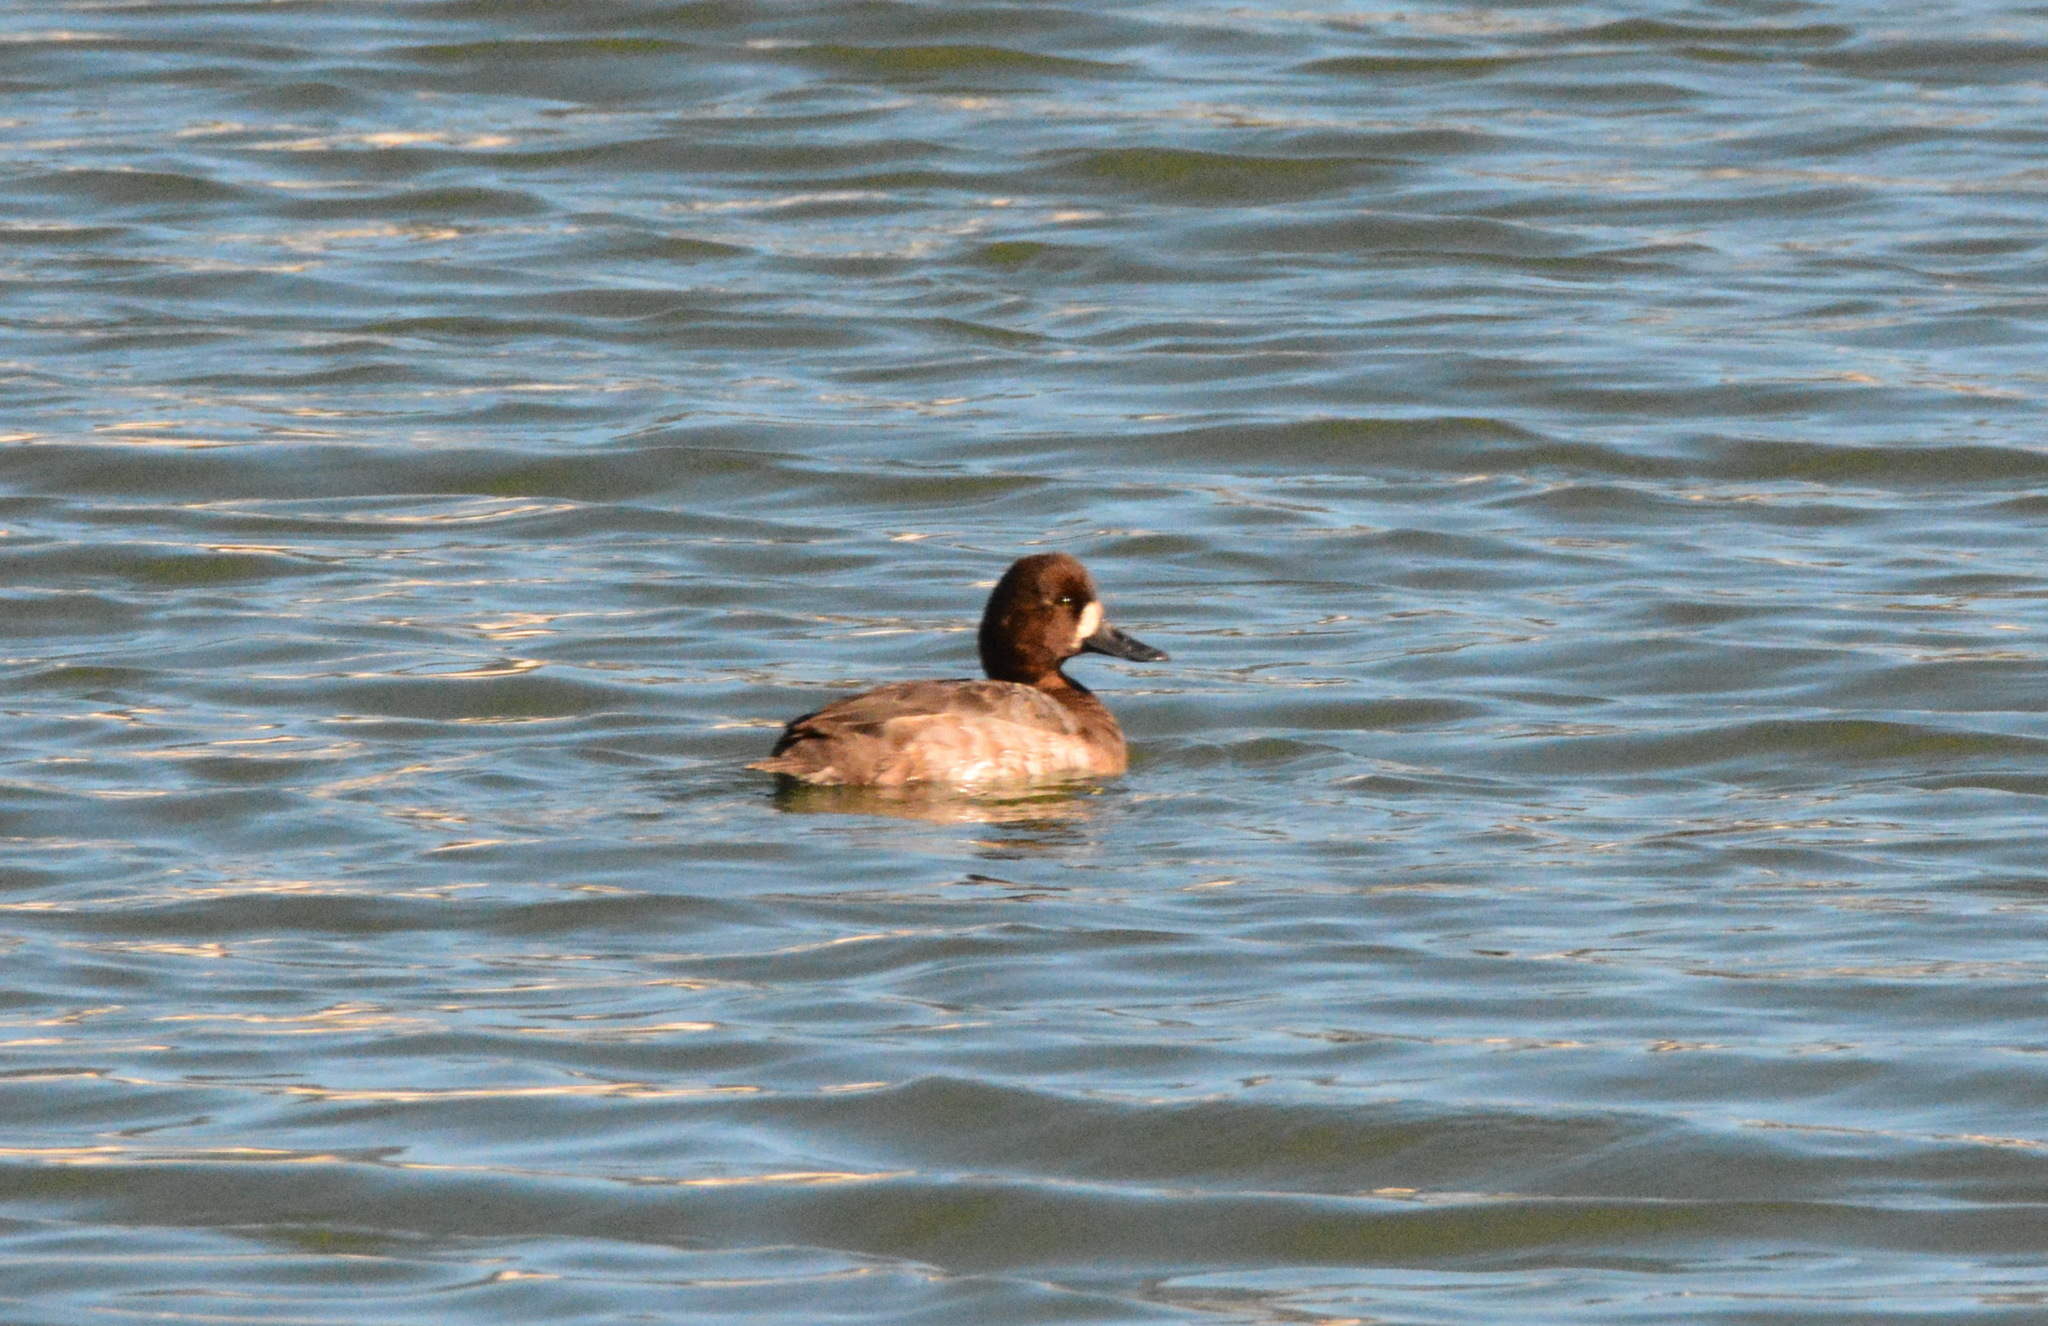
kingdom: Animalia
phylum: Chordata
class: Aves
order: Anseriformes
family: Anatidae
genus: Aythya
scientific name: Aythya affinis
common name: Lesser scaup
